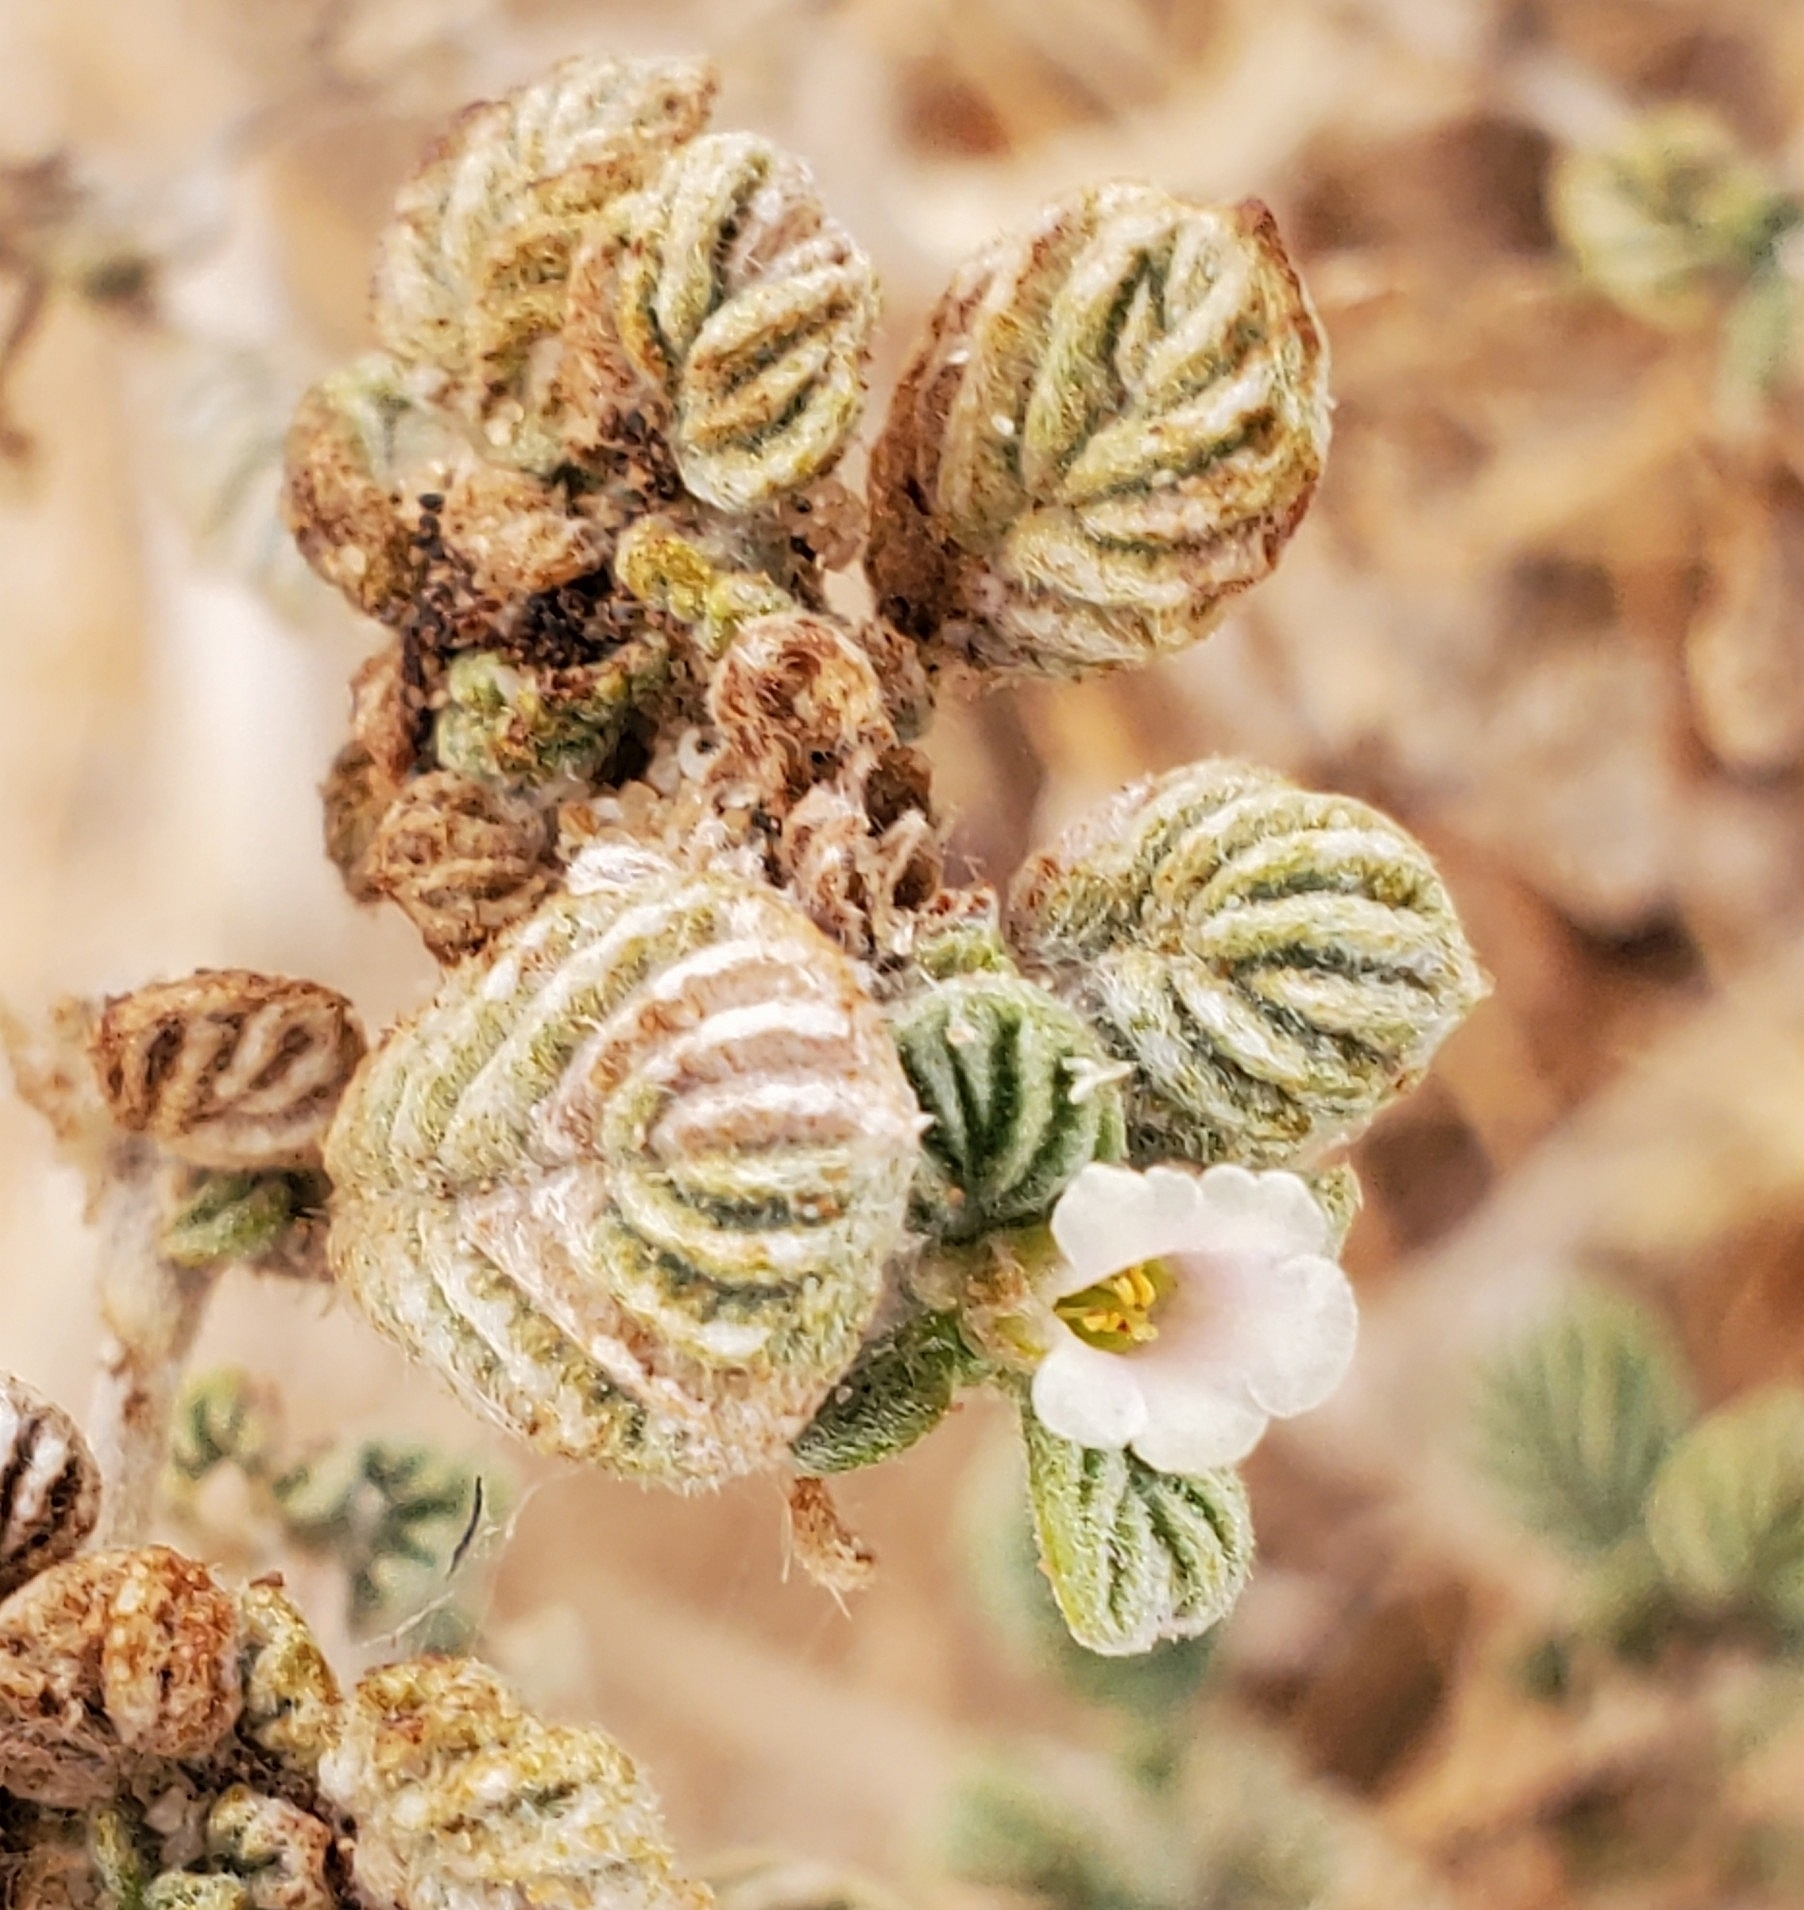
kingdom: Plantae
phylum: Tracheophyta
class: Magnoliopsida
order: Boraginales
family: Ehretiaceae
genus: Tiquilia
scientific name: Tiquilia plicata
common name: Fan-leaf tiquilia
